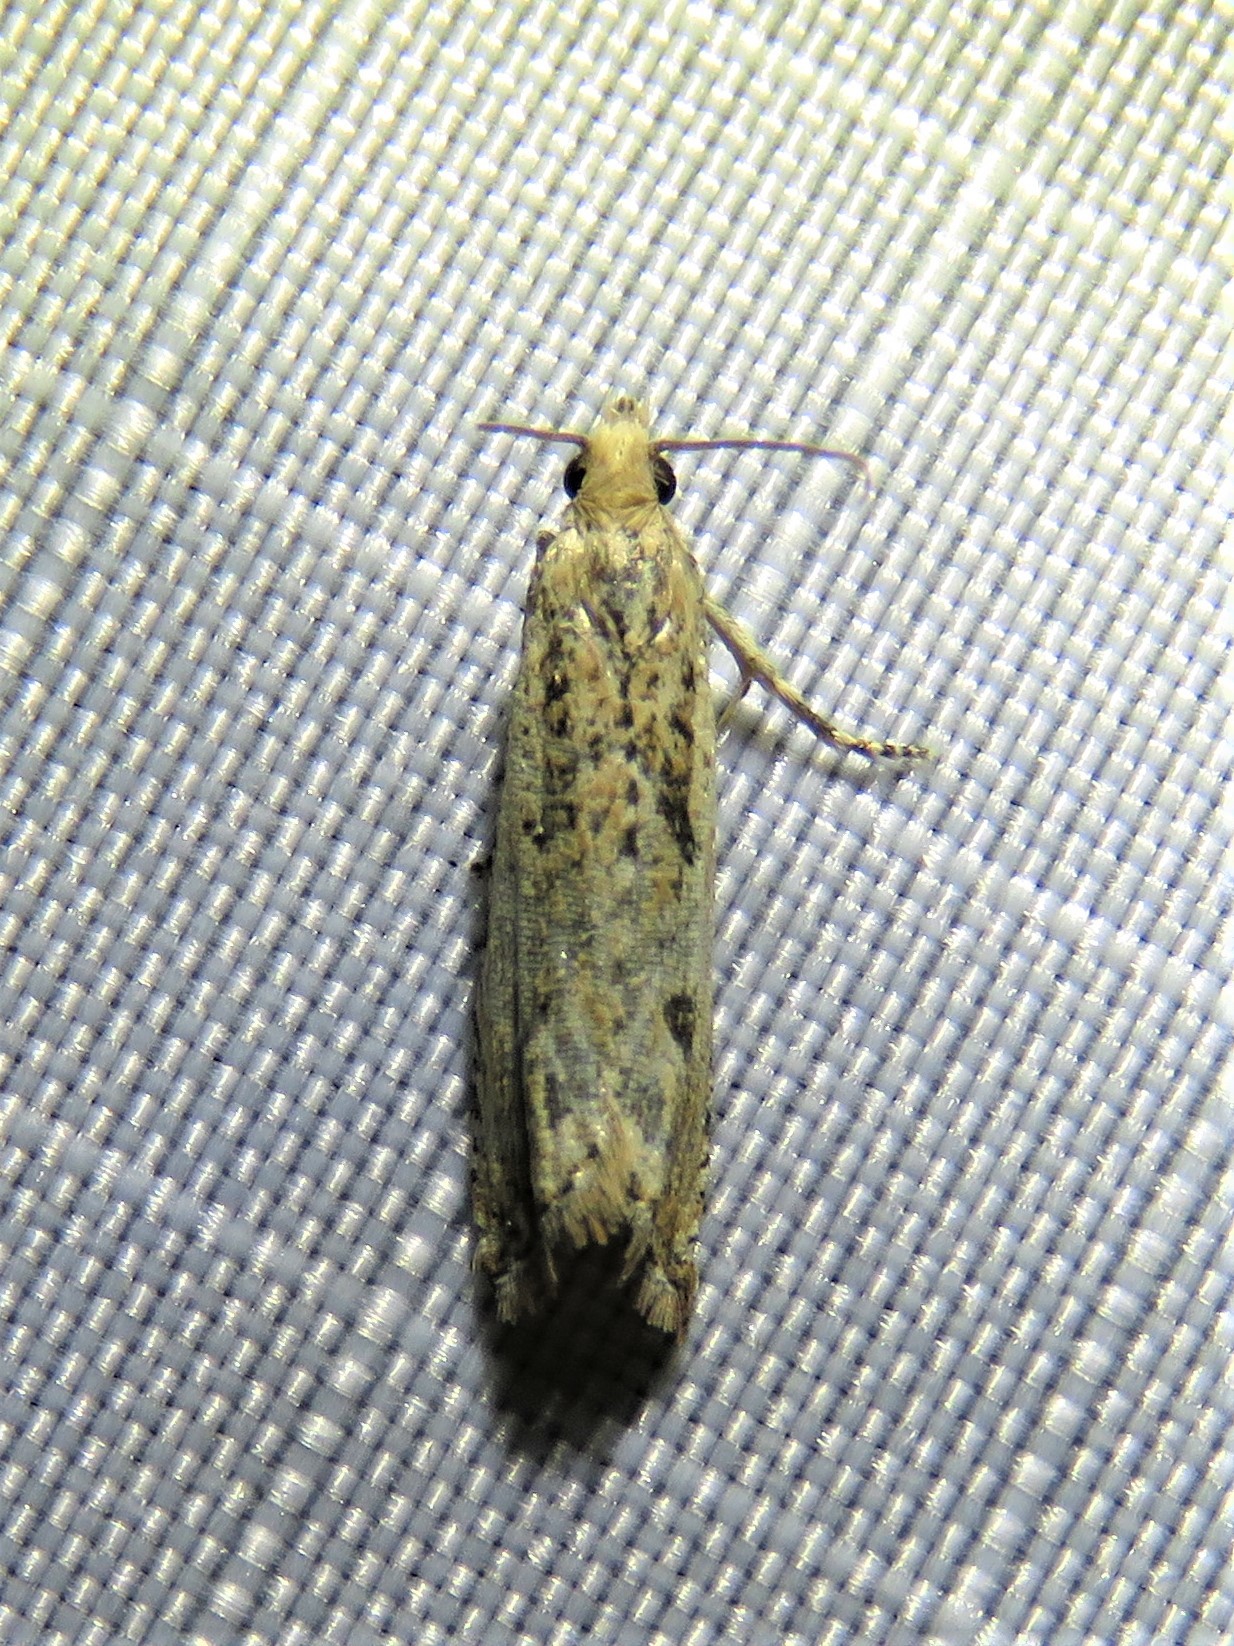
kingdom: Animalia
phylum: Arthropoda
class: Insecta
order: Lepidoptera
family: Tortricidae
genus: Bactra
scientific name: Bactra verutana
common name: Javelin moth
